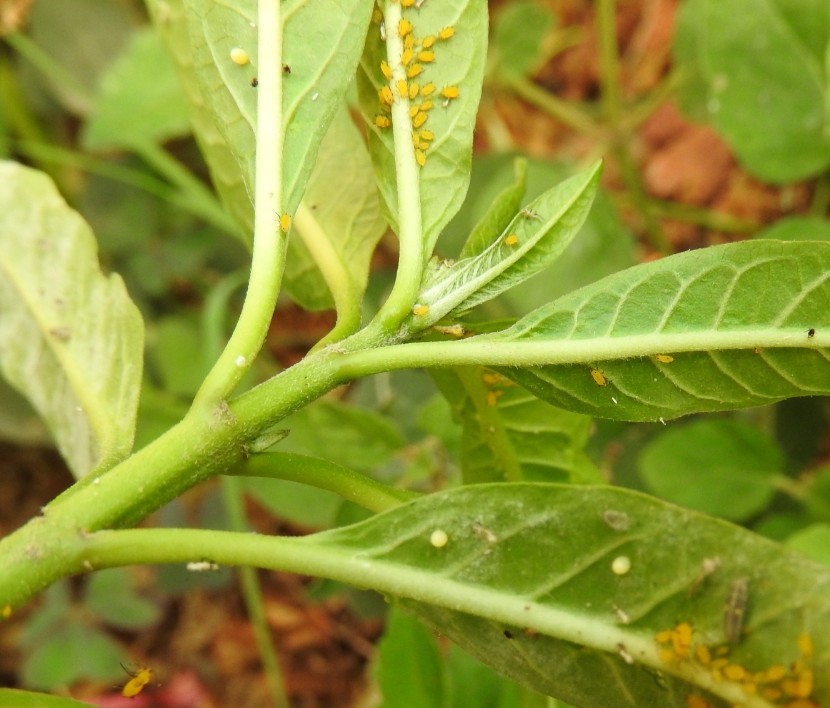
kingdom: Animalia
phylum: Arthropoda
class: Insecta
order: Lepidoptera
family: Nymphalidae
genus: Danaus
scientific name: Danaus plexippus
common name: Monarch
